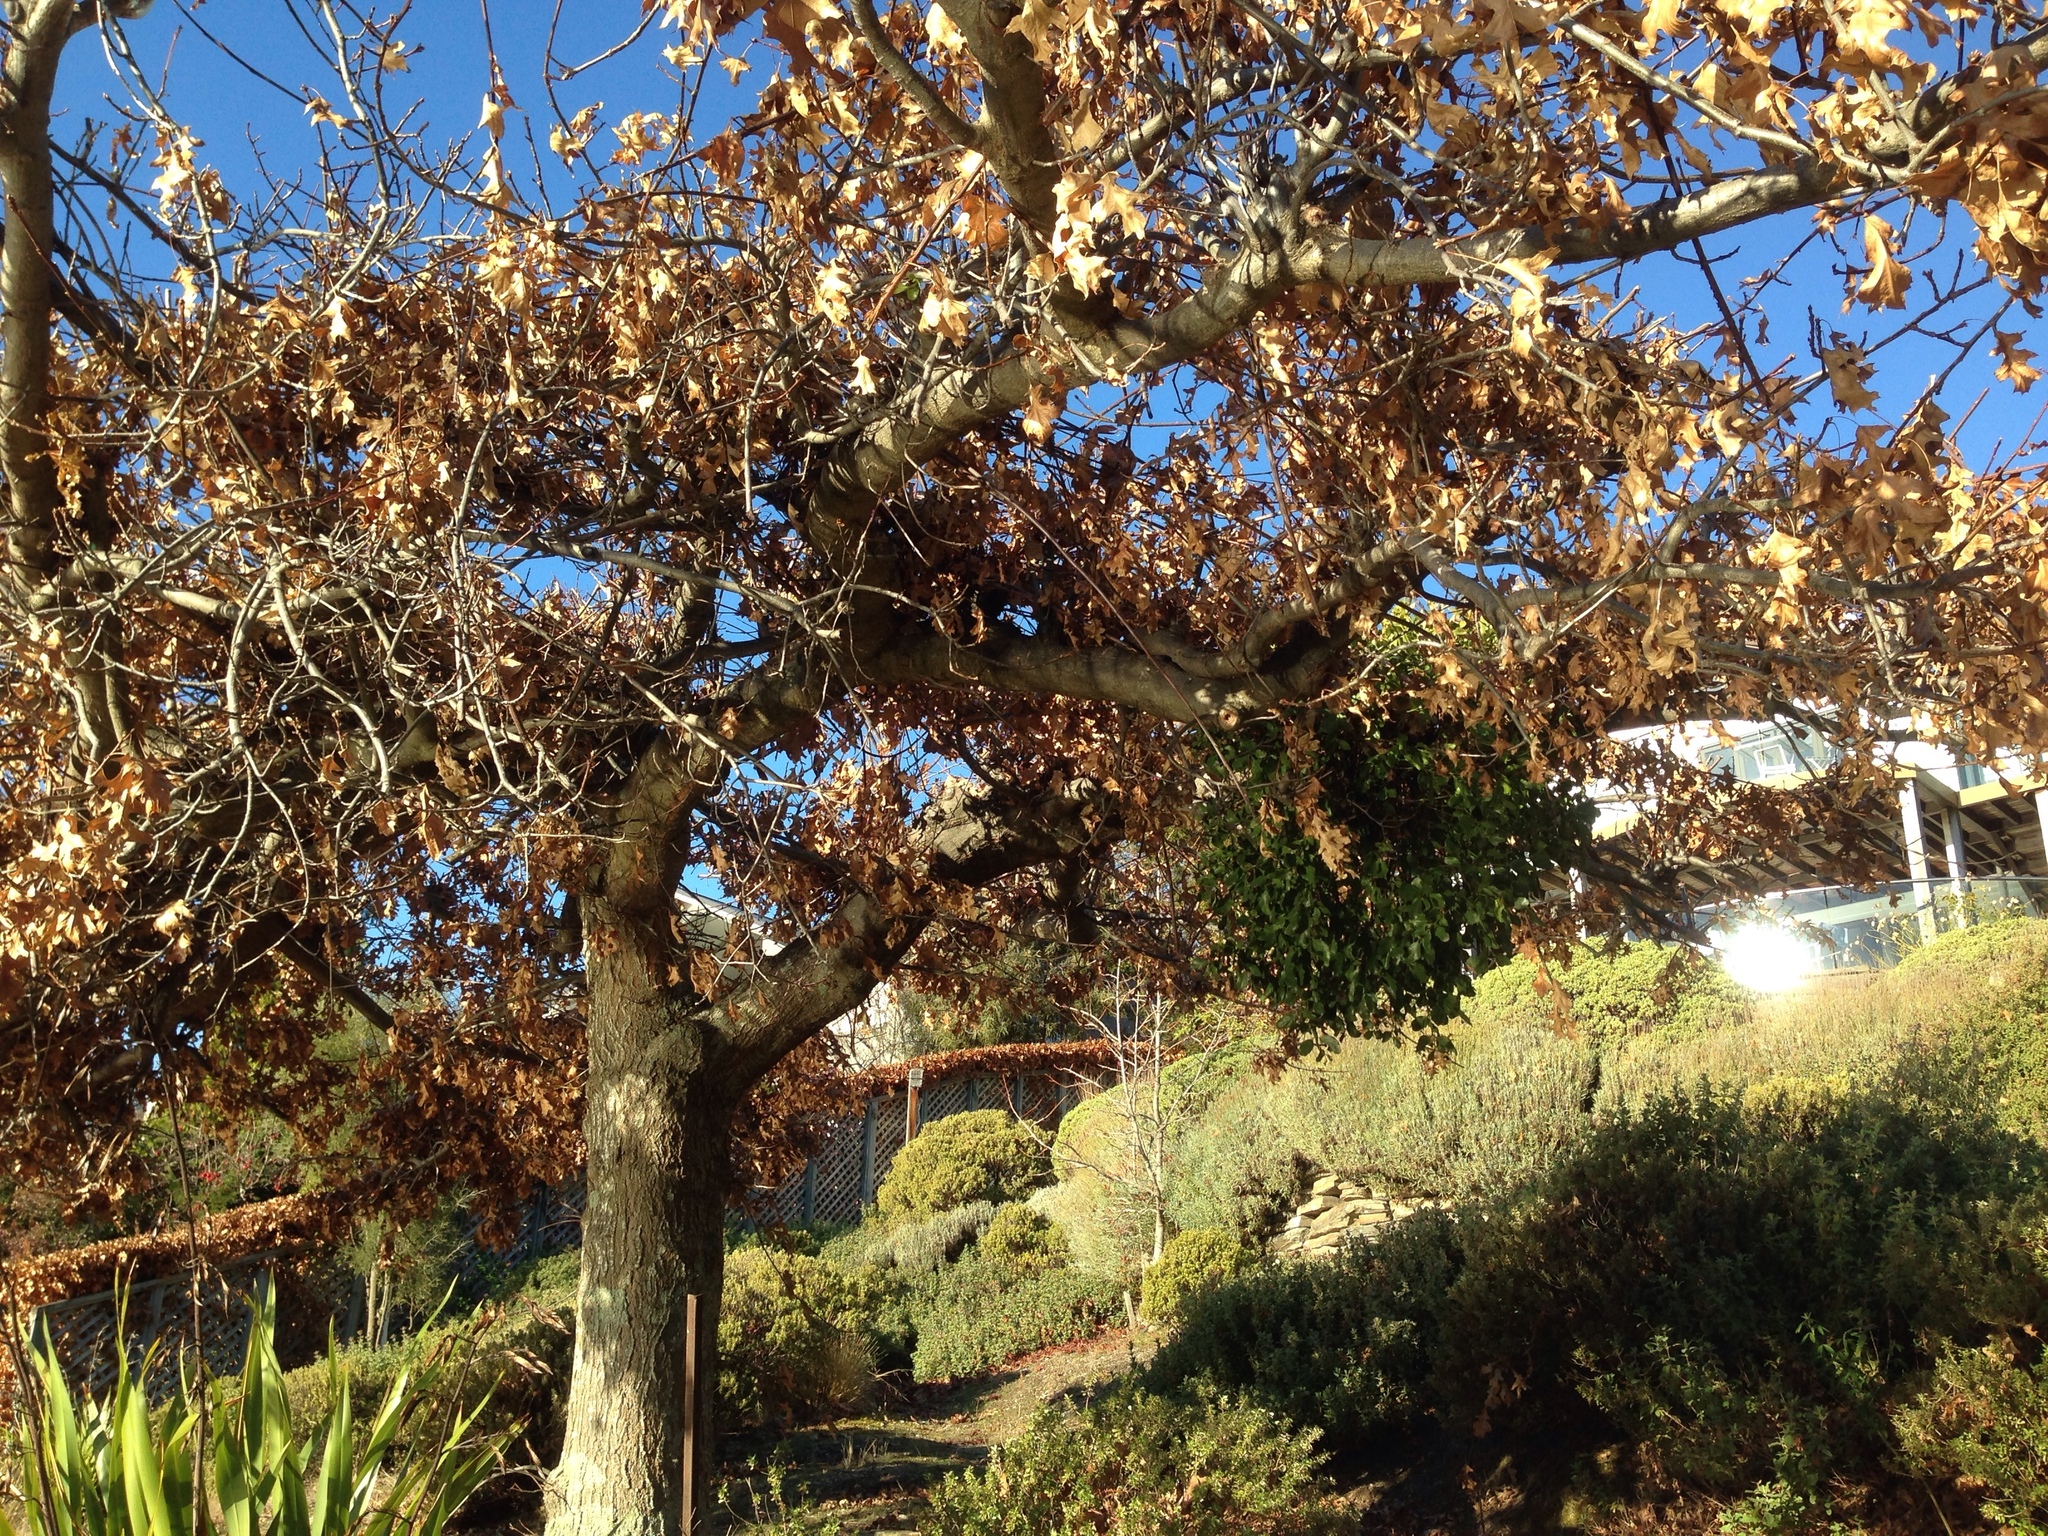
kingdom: Plantae
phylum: Tracheophyta
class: Magnoliopsida
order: Santalales
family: Loranthaceae
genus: Ileostylus
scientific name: Ileostylus micranthus
